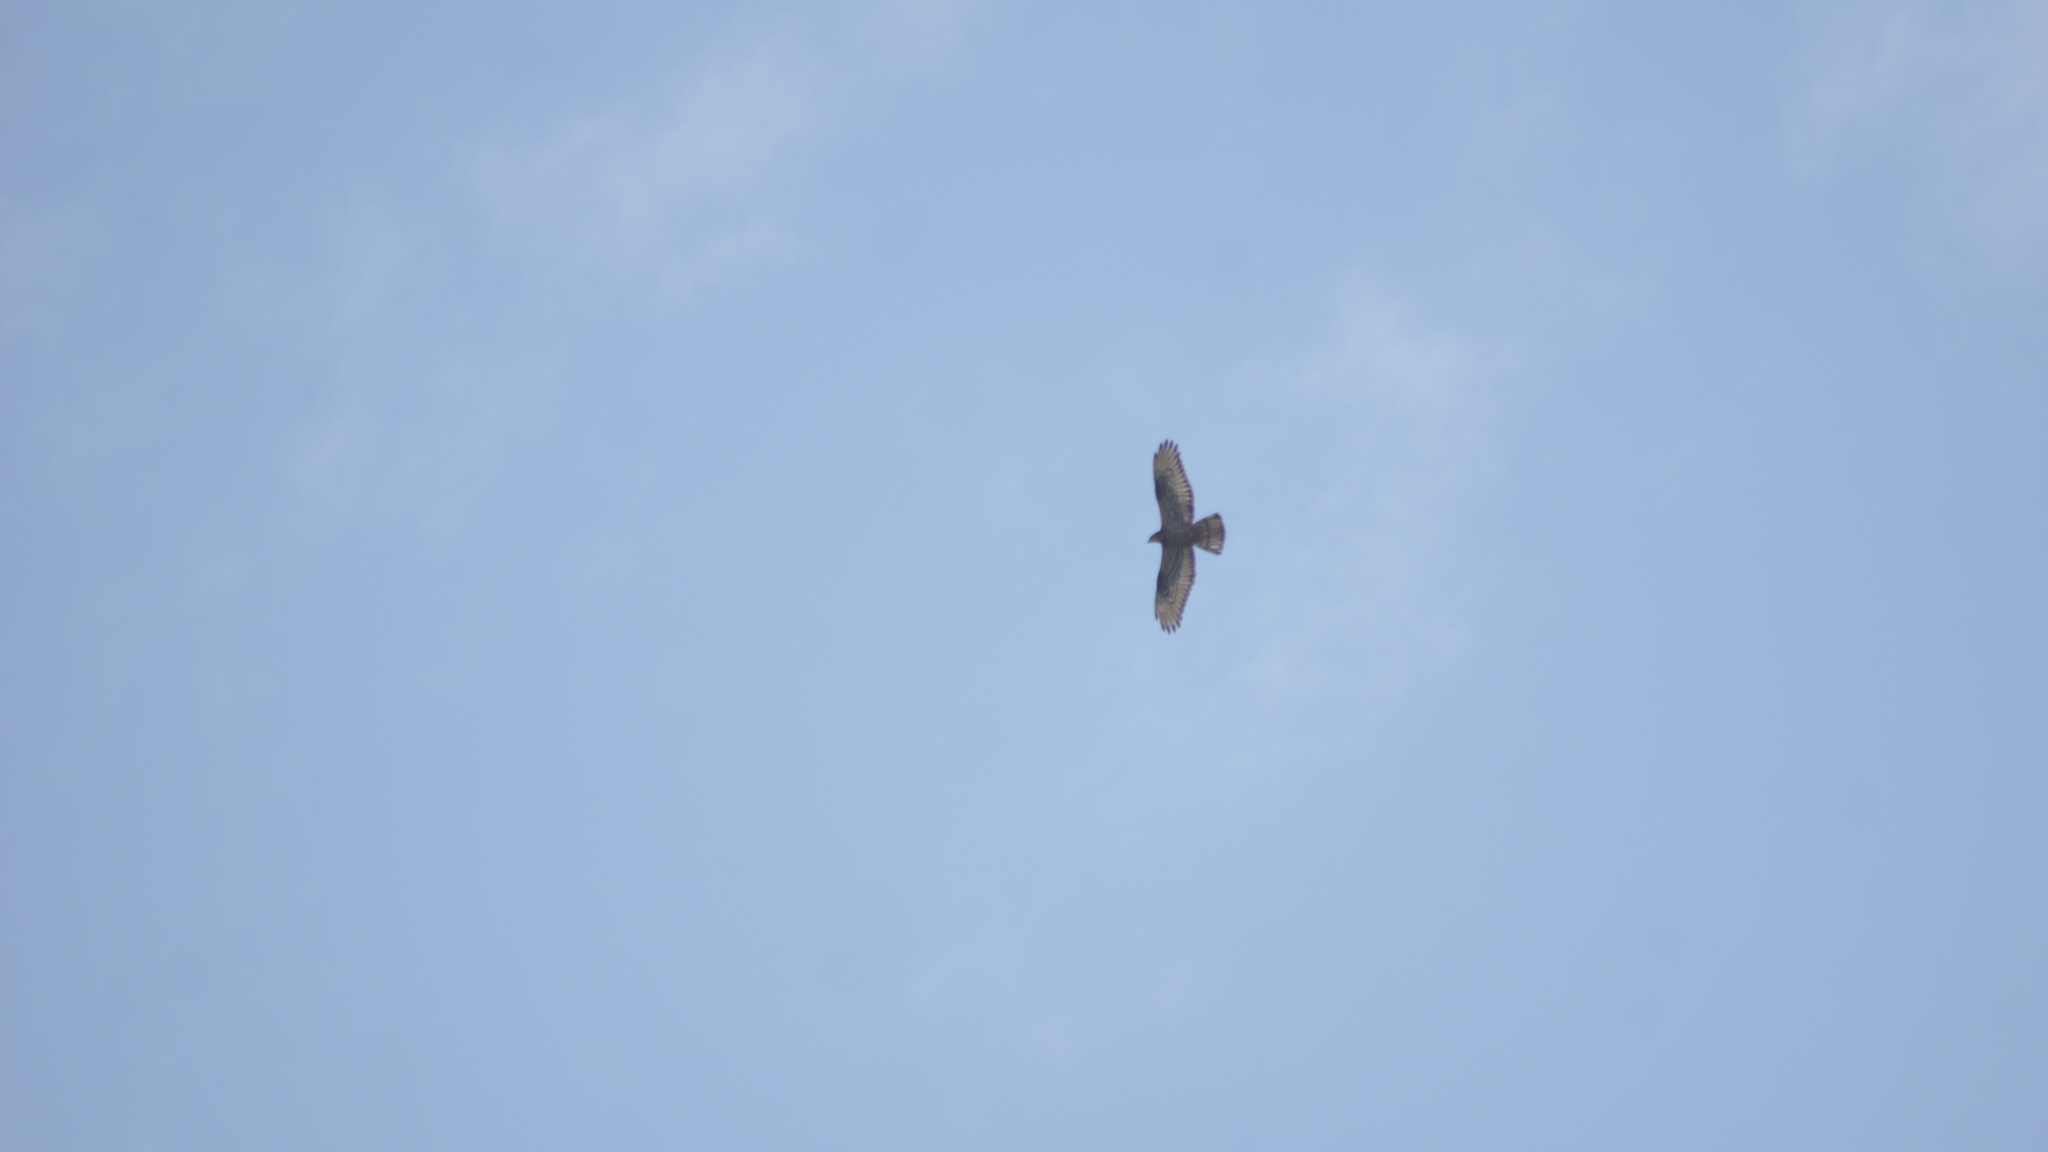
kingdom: Animalia
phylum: Chordata
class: Aves
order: Accipitriformes
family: Accipitridae
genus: Pernis
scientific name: Pernis apivorus
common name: European honey buzzard
